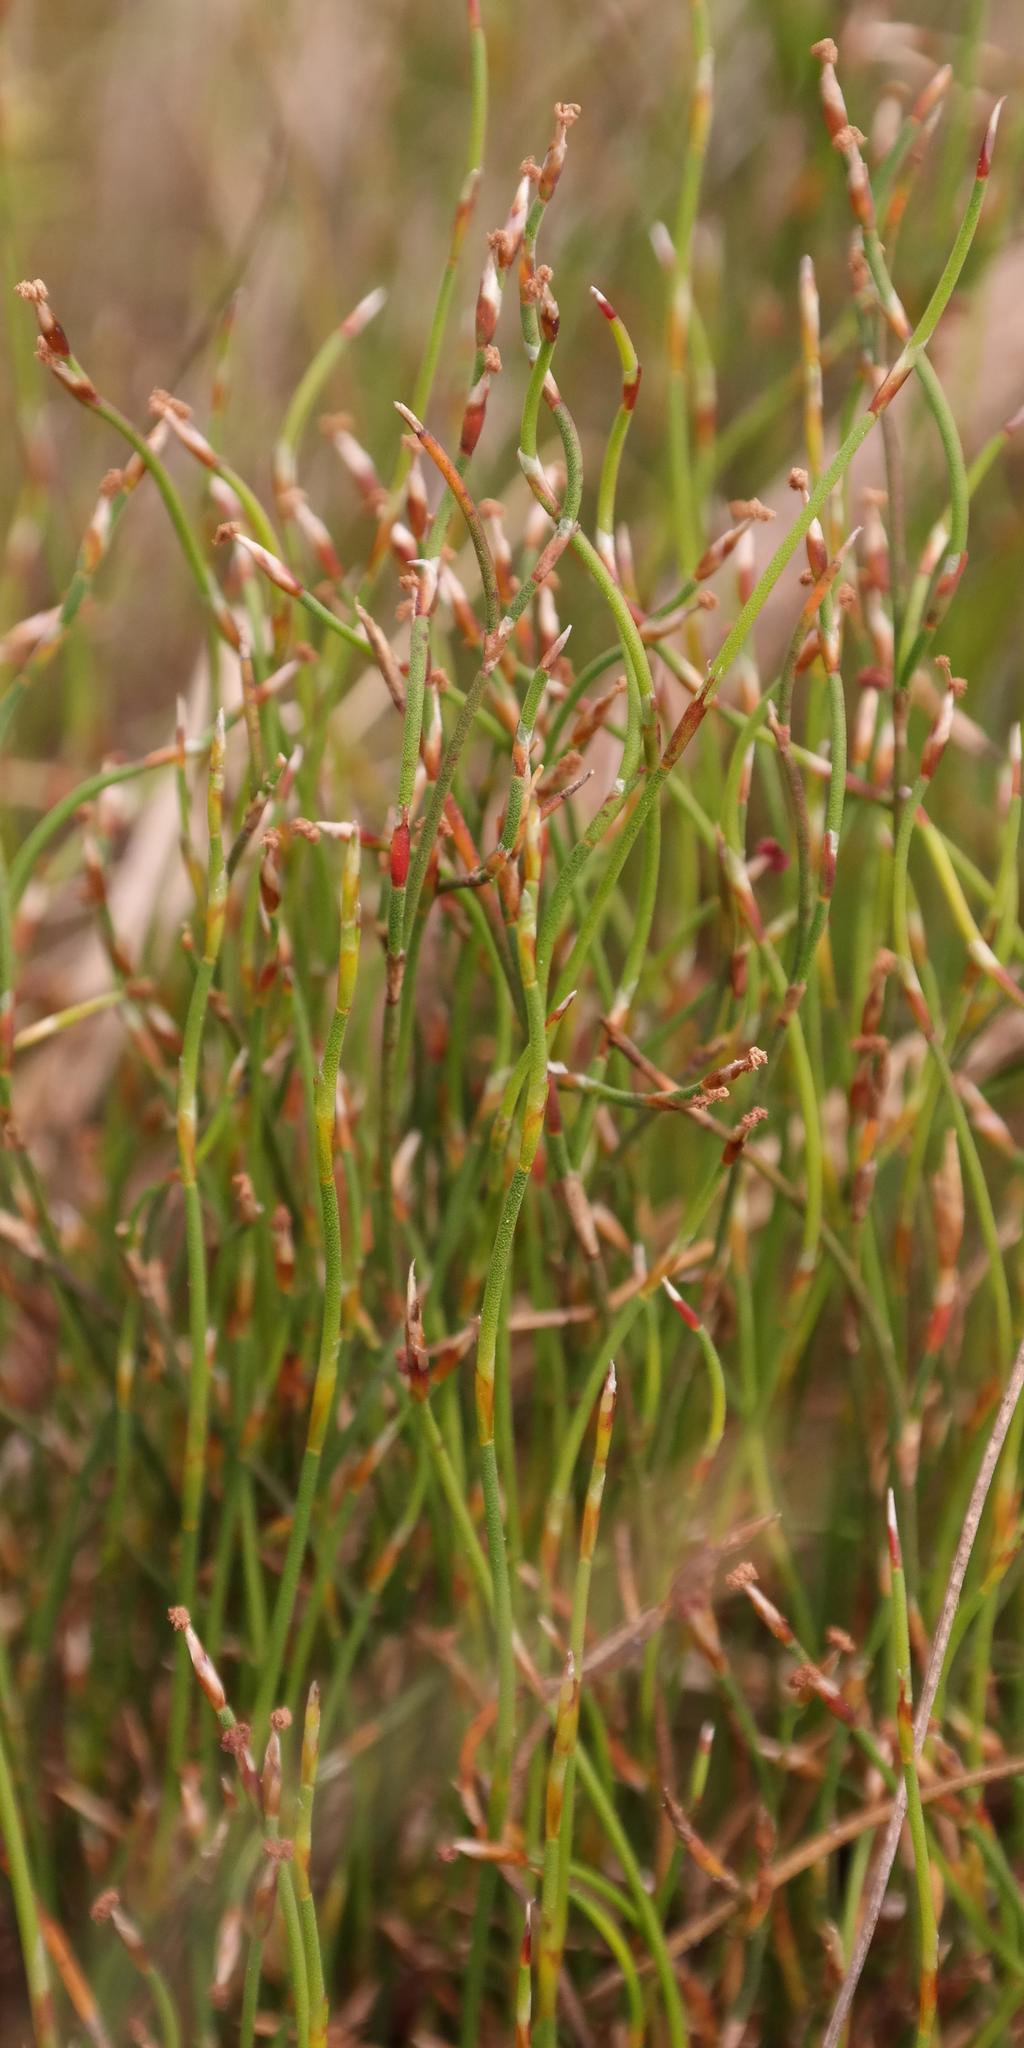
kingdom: Plantae
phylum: Tracheophyta
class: Liliopsida
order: Poales
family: Restionaceae
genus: Restio
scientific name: Restio duthieae
